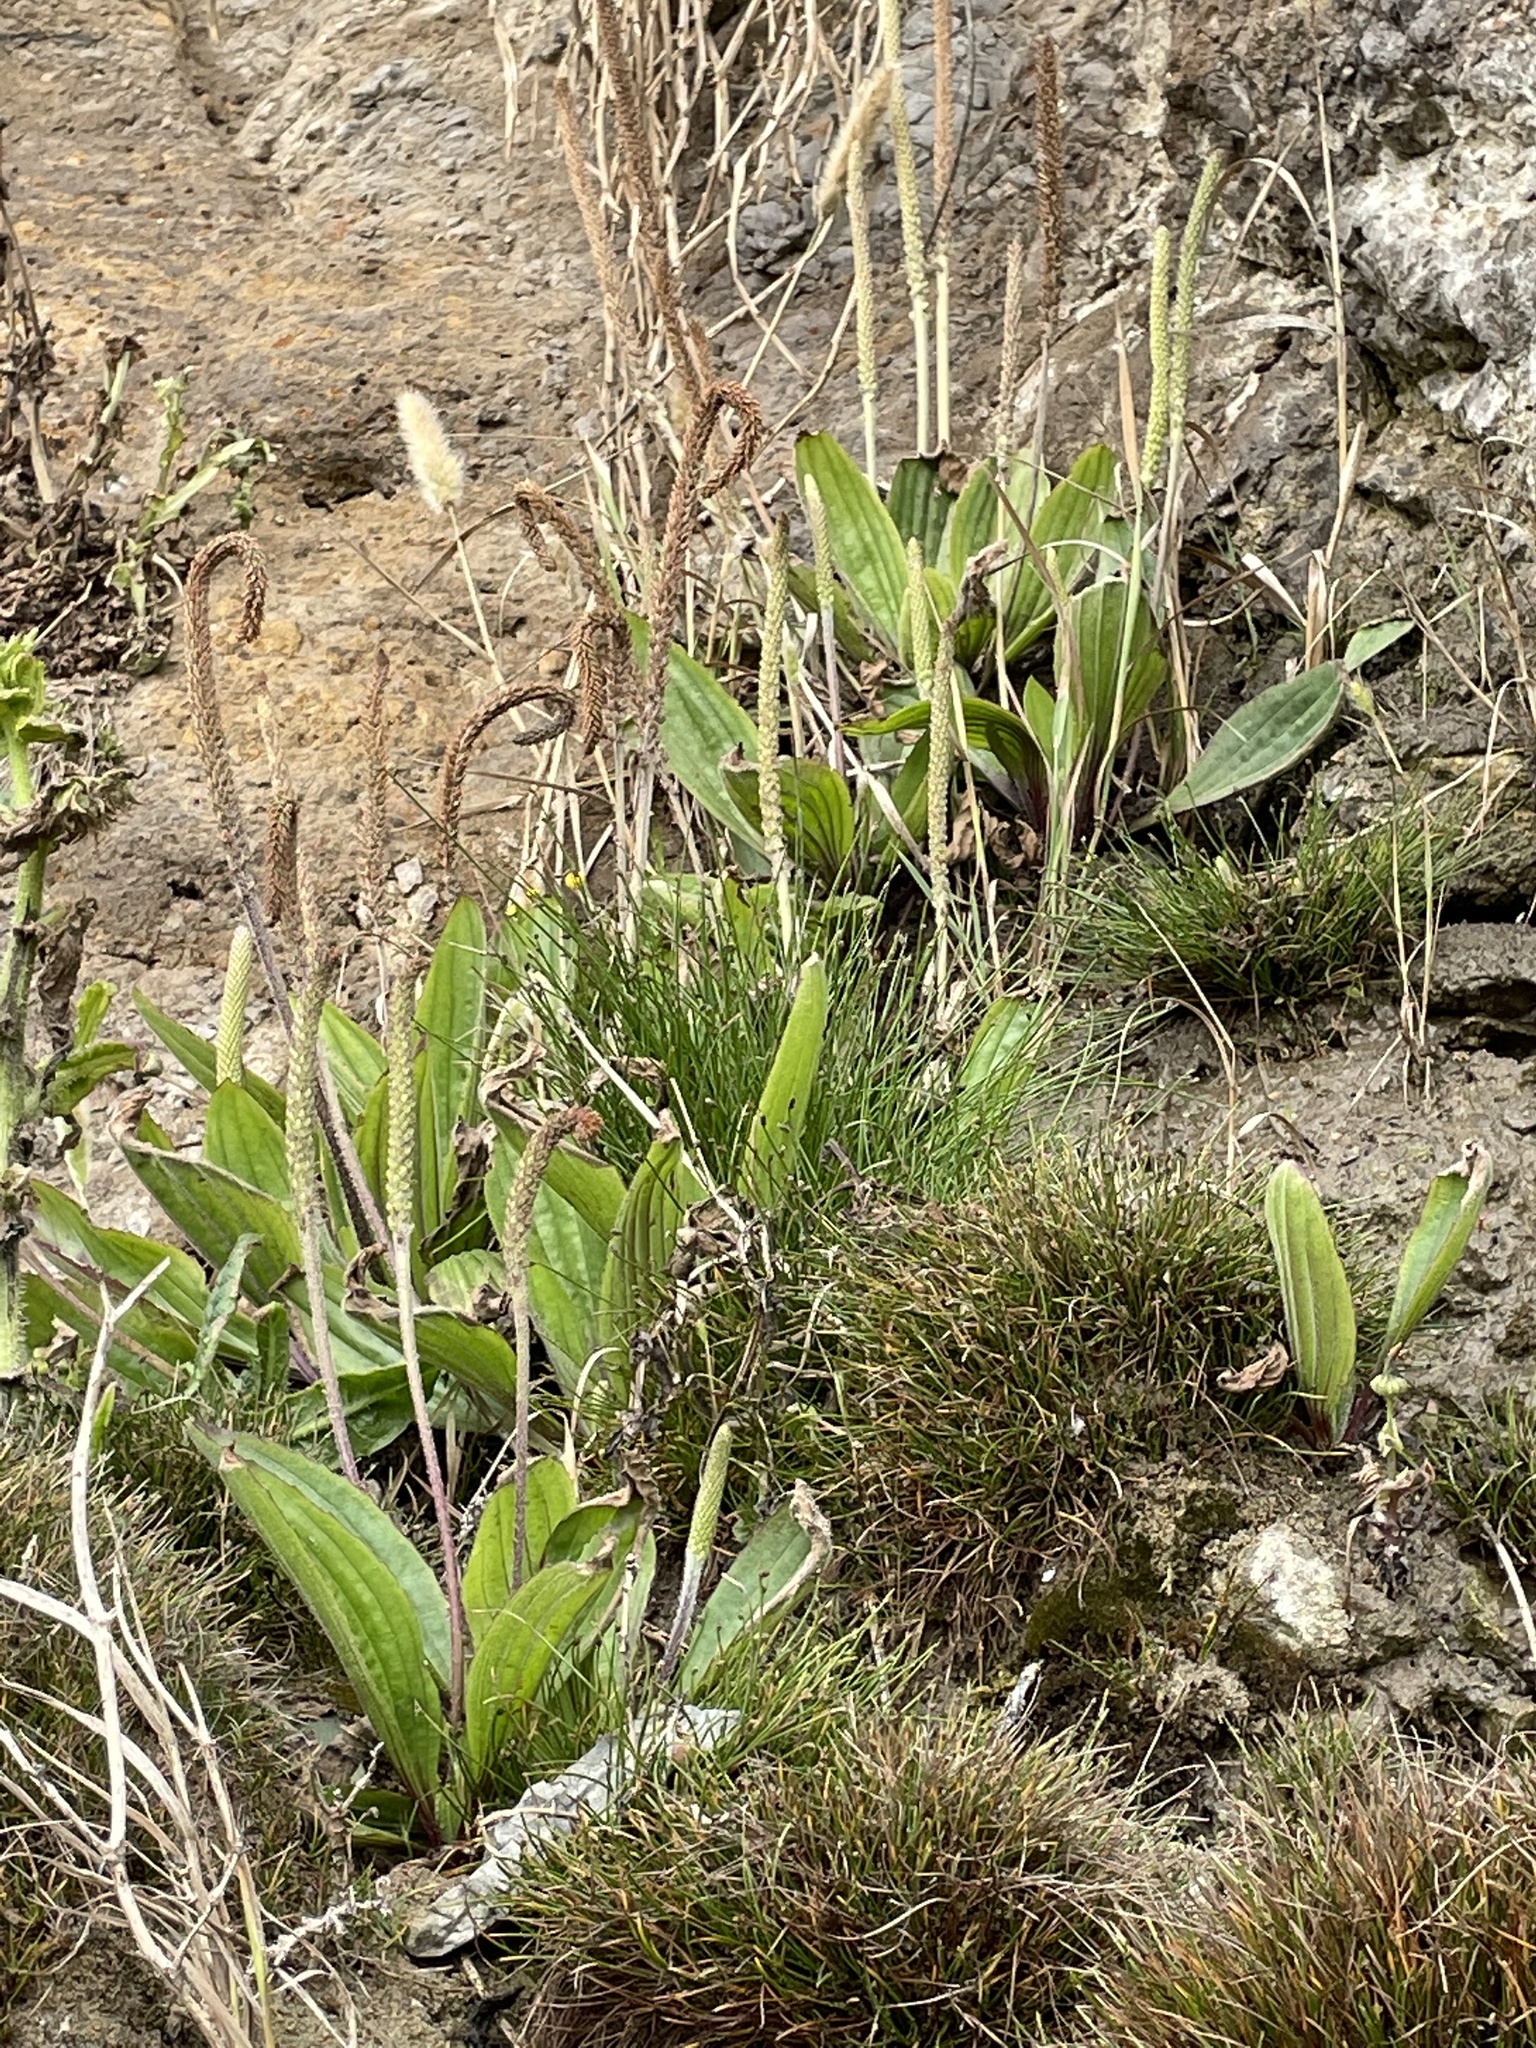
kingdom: Plantae
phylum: Tracheophyta
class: Magnoliopsida
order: Lamiales
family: Plantaginaceae
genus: Plantago
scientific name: Plantago subnuda
